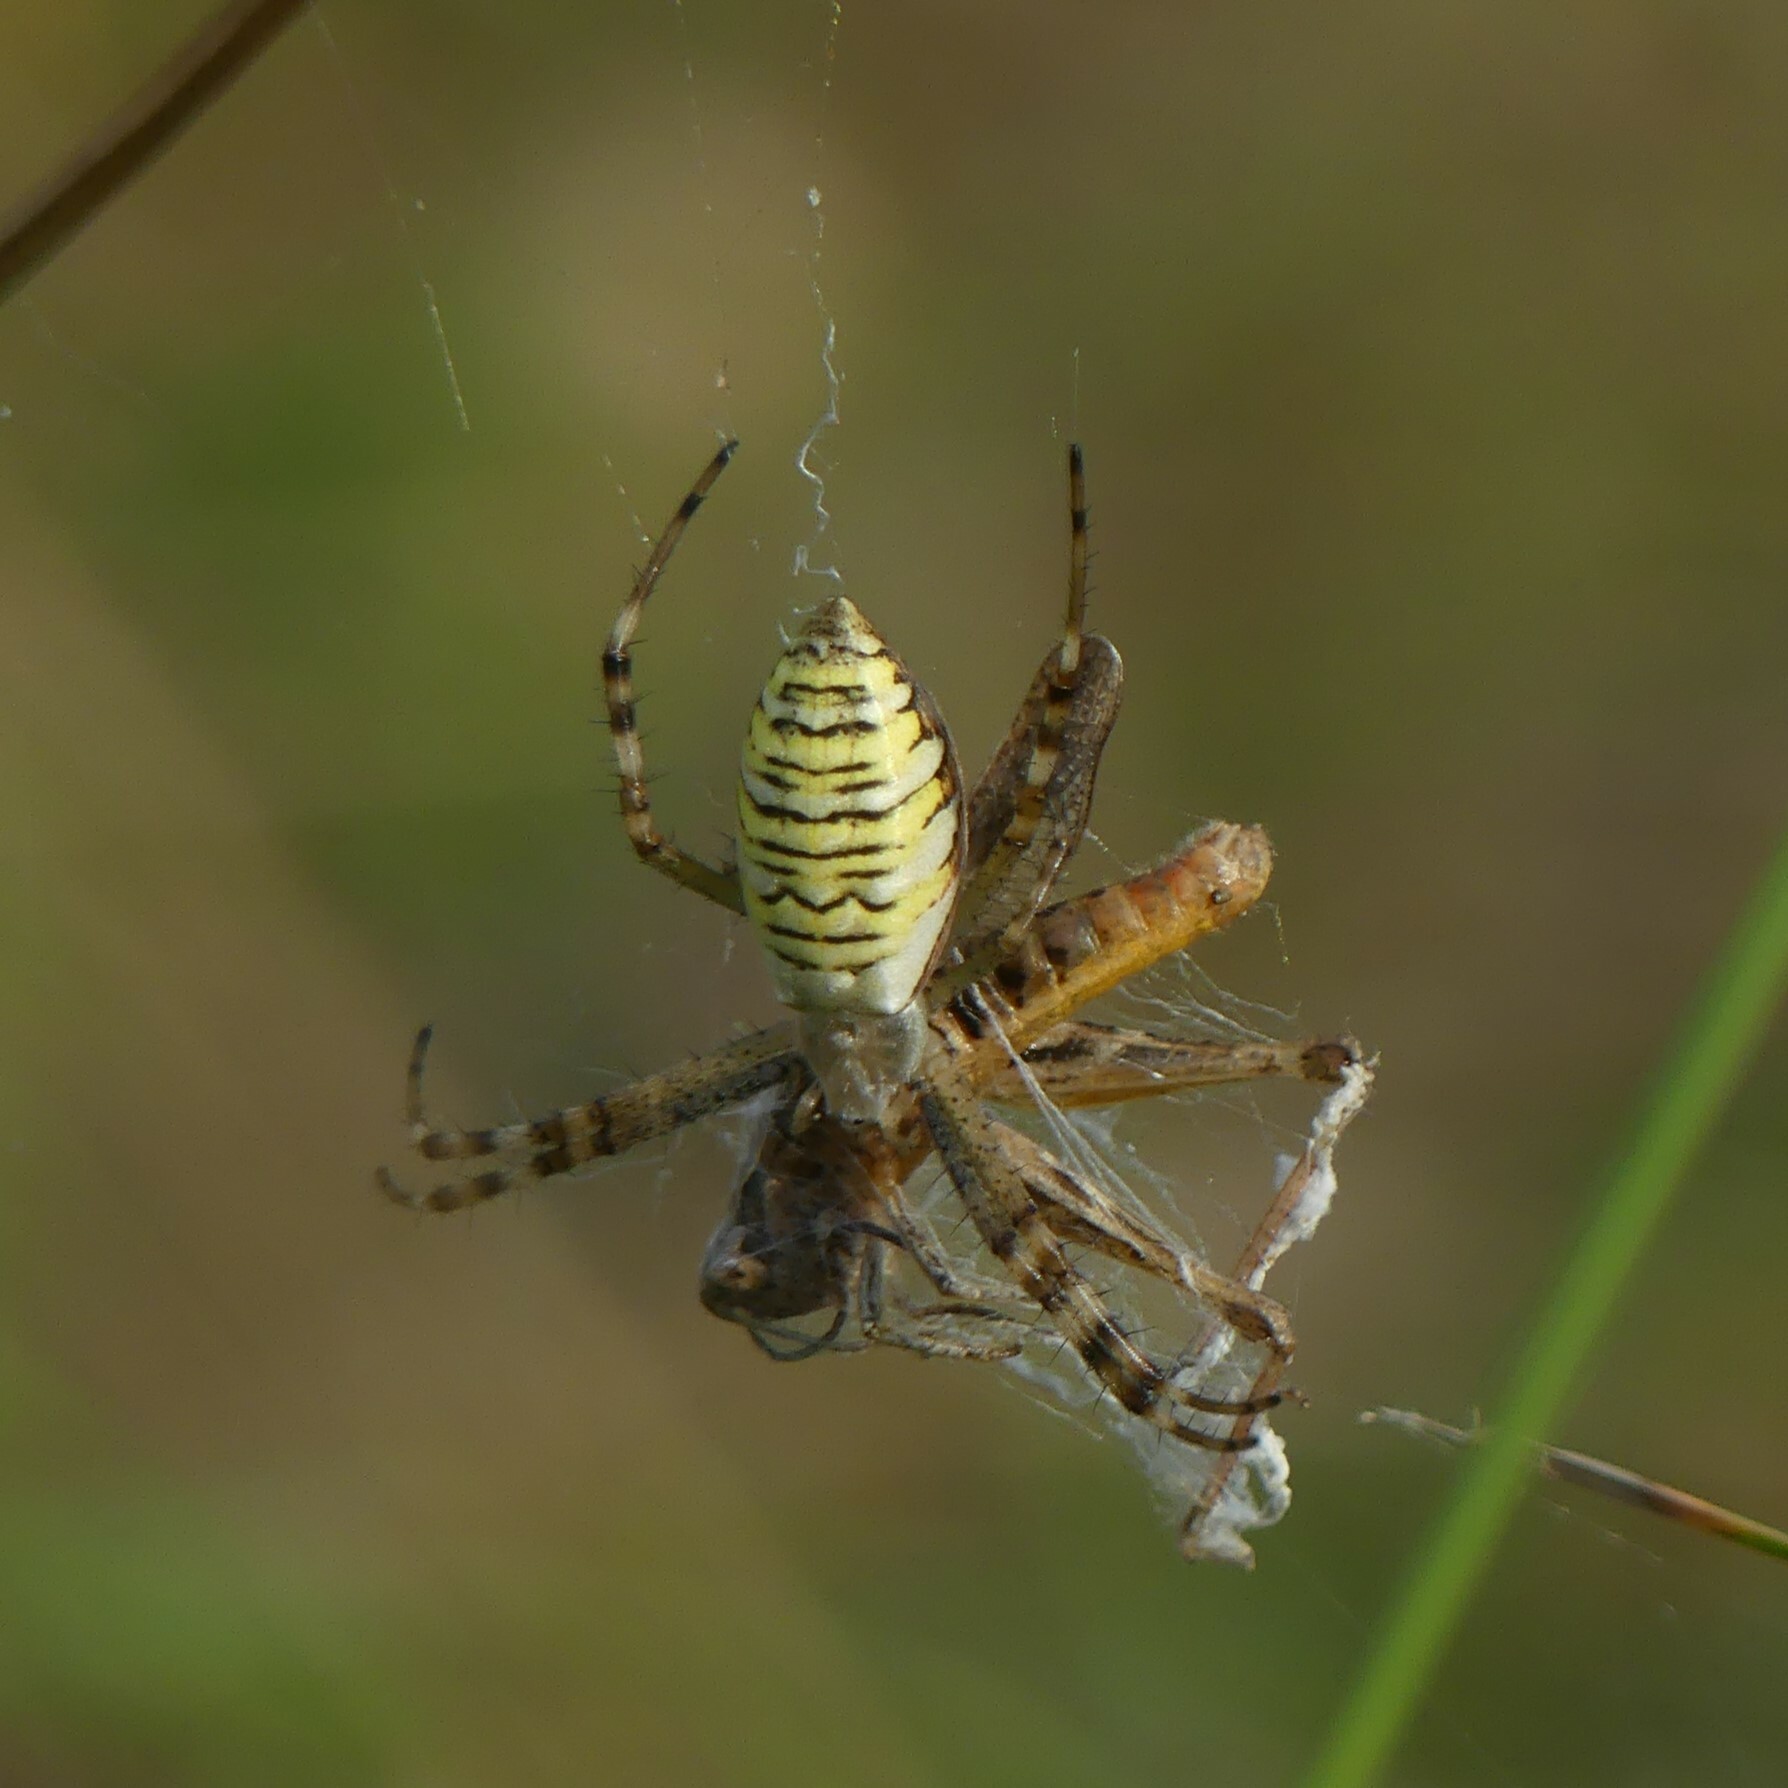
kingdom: Animalia
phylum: Arthropoda
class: Arachnida
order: Araneae
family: Araneidae
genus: Argiope
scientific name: Argiope bruennichi
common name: Wasp spider
